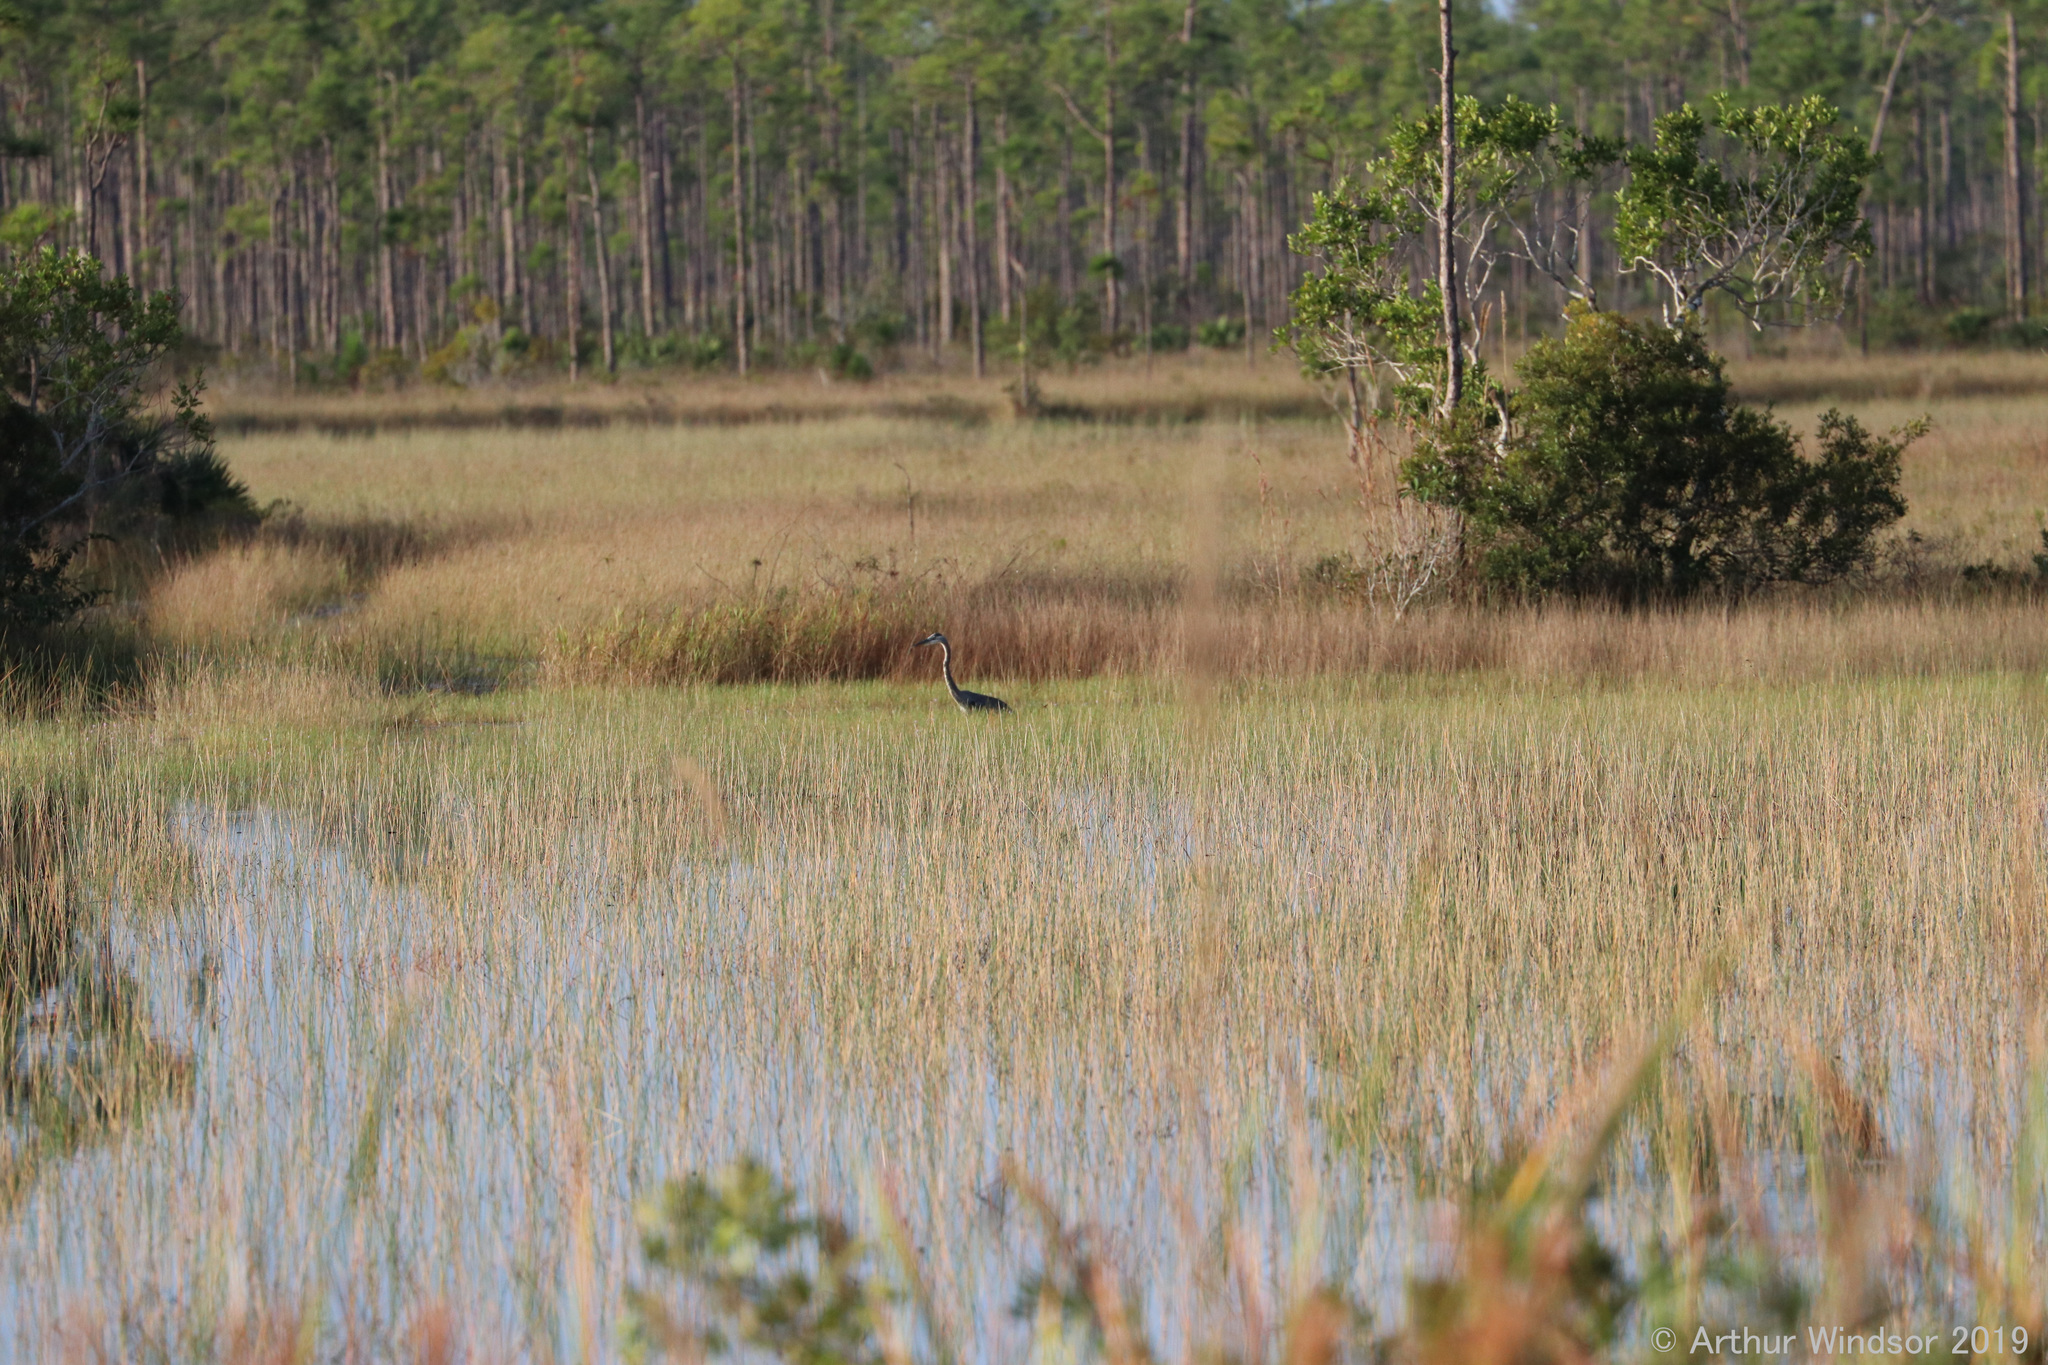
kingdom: Animalia
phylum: Chordata
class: Aves
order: Pelecaniformes
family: Ardeidae
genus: Ardea
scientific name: Ardea herodias
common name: Great blue heron
